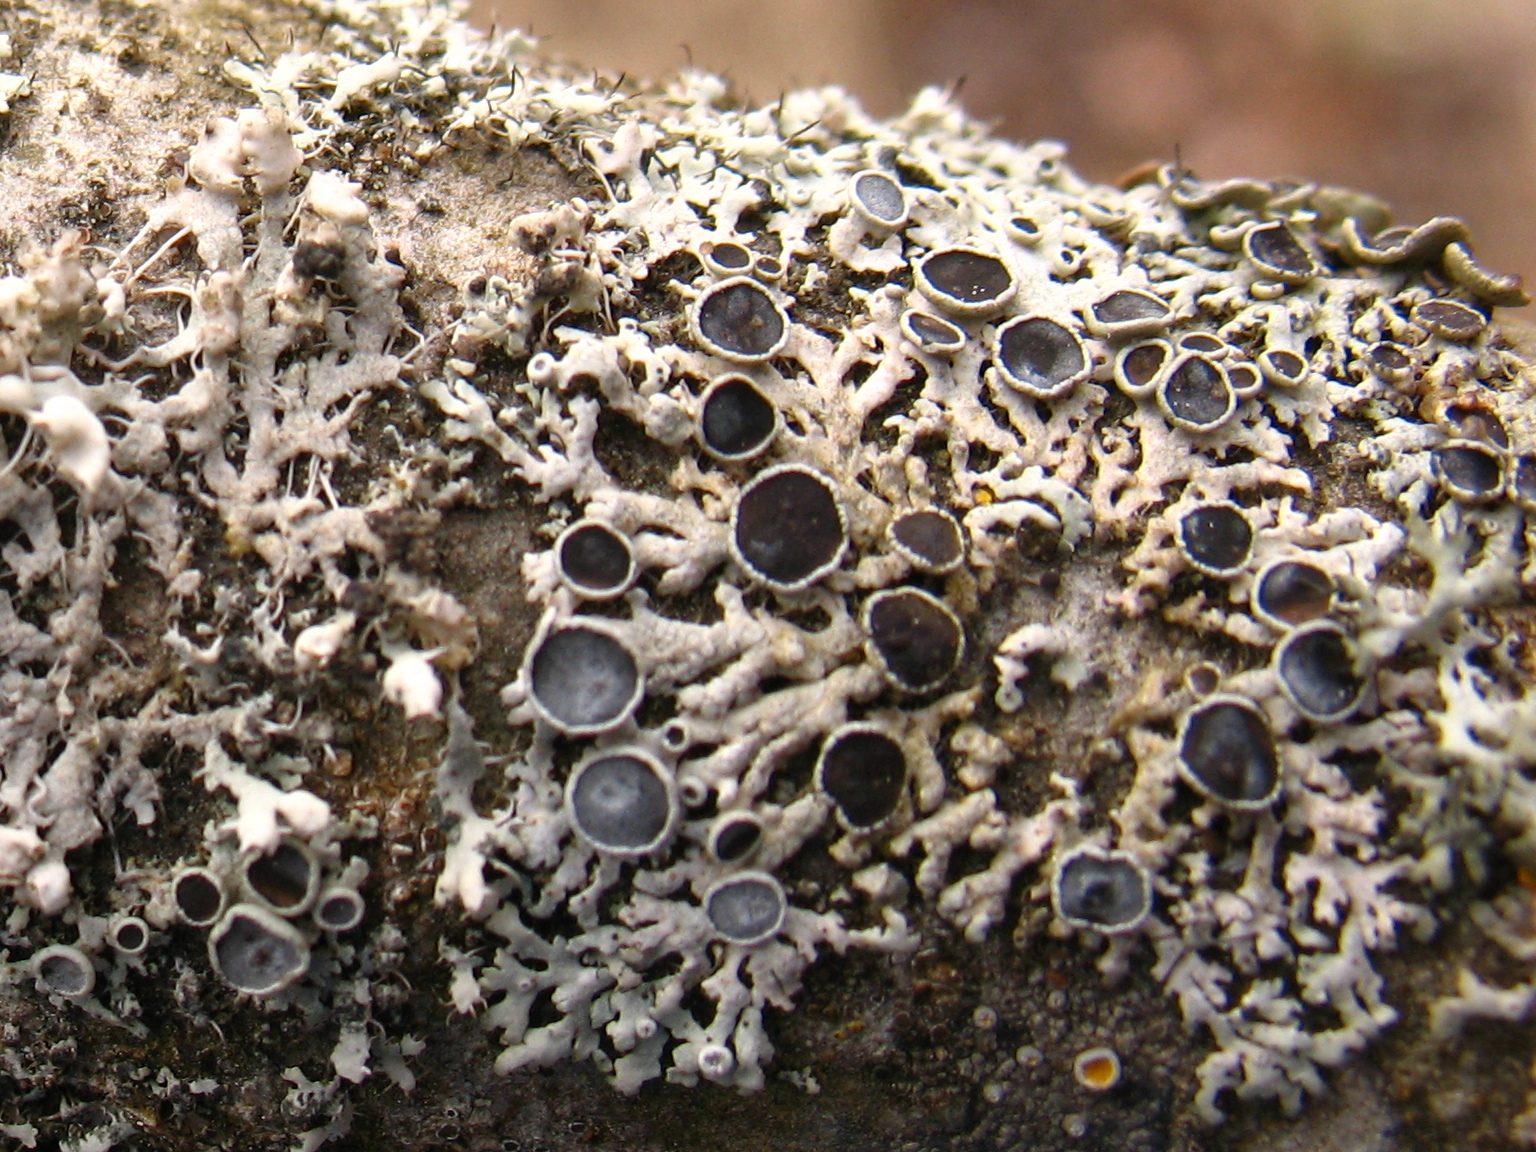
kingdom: Fungi
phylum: Ascomycota
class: Lecanoromycetes
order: Caliciales
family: Physciaceae
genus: Physcia
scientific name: Physcia stellaris
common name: Star rosette lichen
